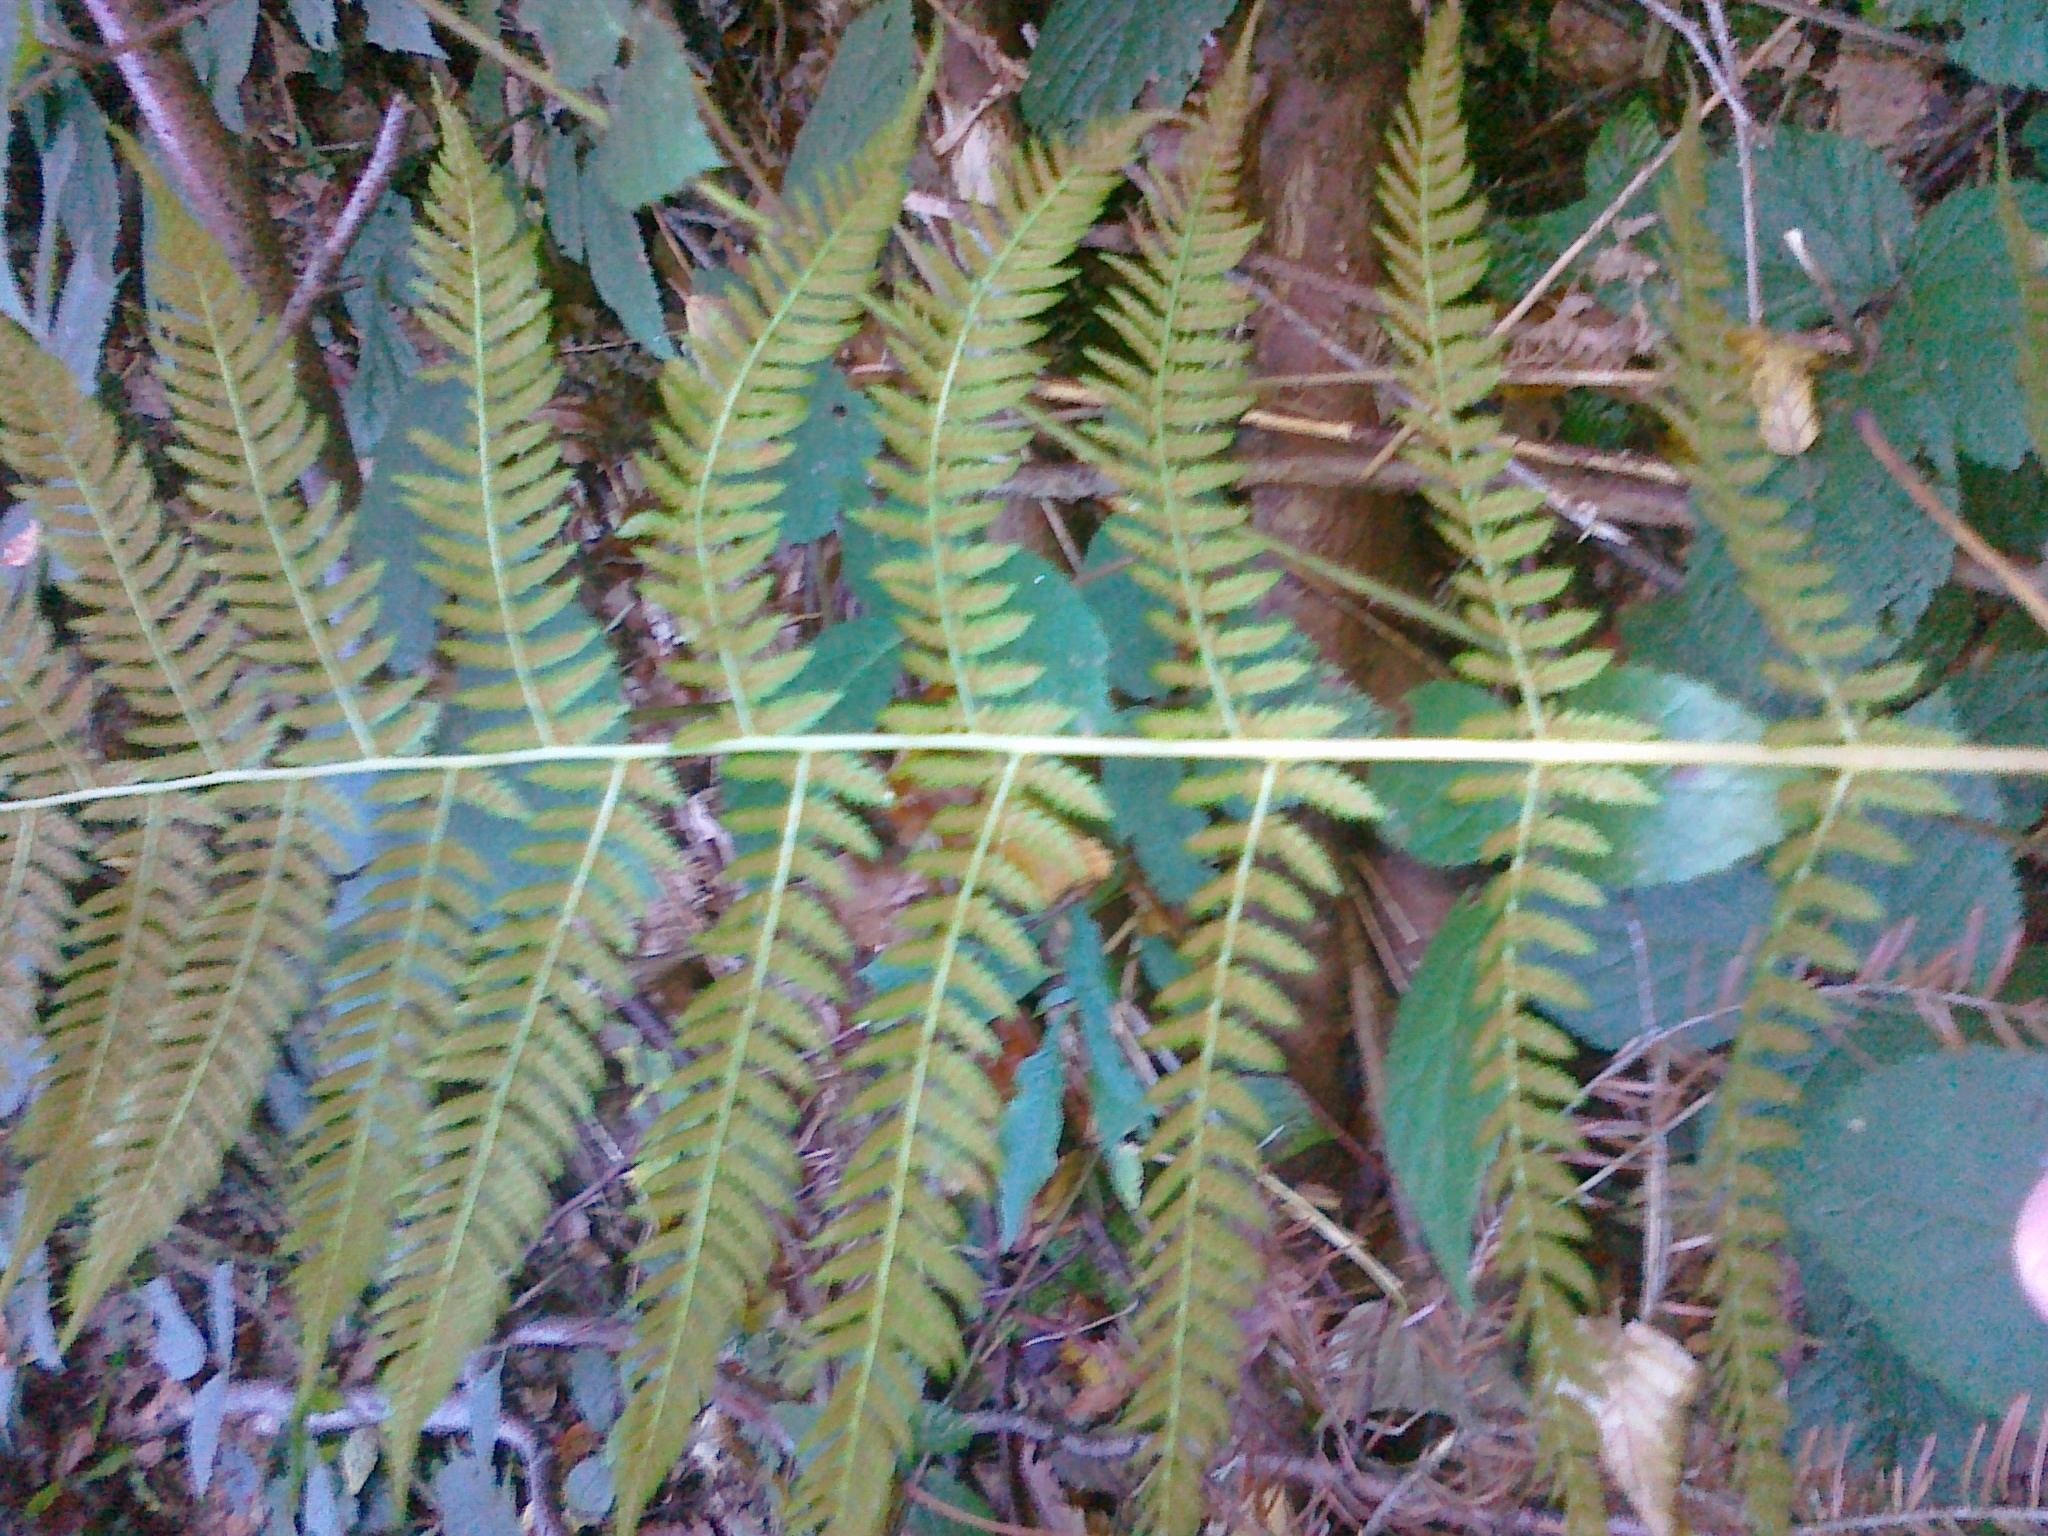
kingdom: Plantae
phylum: Tracheophyta
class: Polypodiopsida
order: Polypodiales
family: Athyriaceae
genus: Athyrium
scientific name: Athyrium filix-femina
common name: Lady fern
